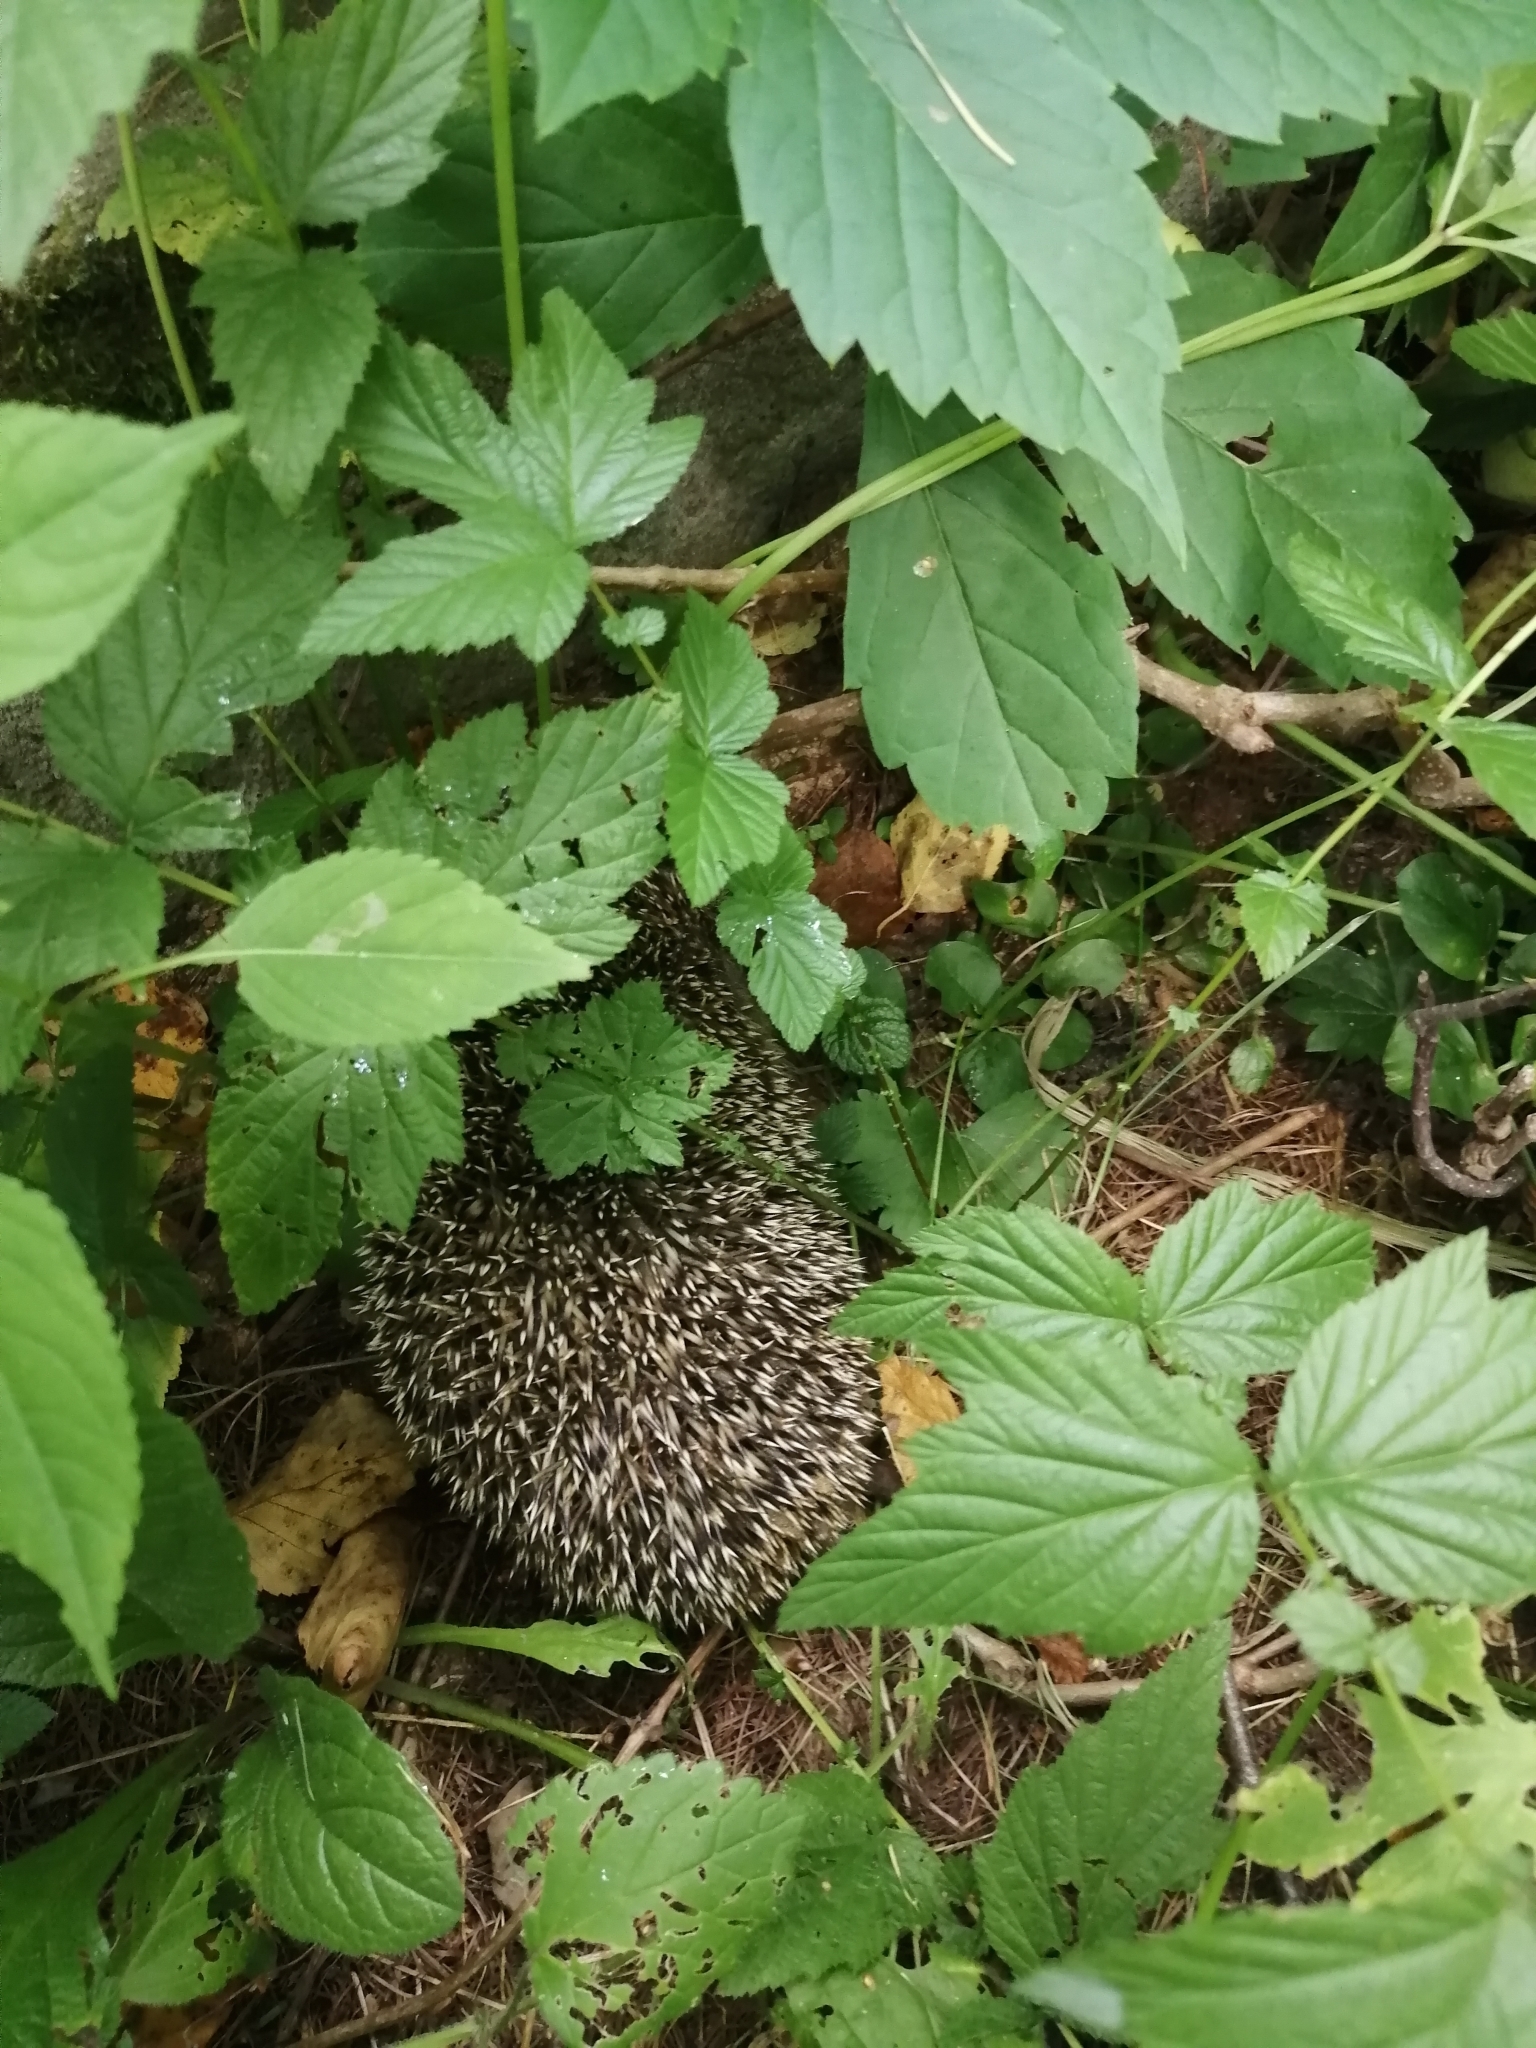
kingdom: Animalia
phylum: Chordata
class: Mammalia
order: Erinaceomorpha
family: Erinaceidae
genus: Erinaceus
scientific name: Erinaceus
